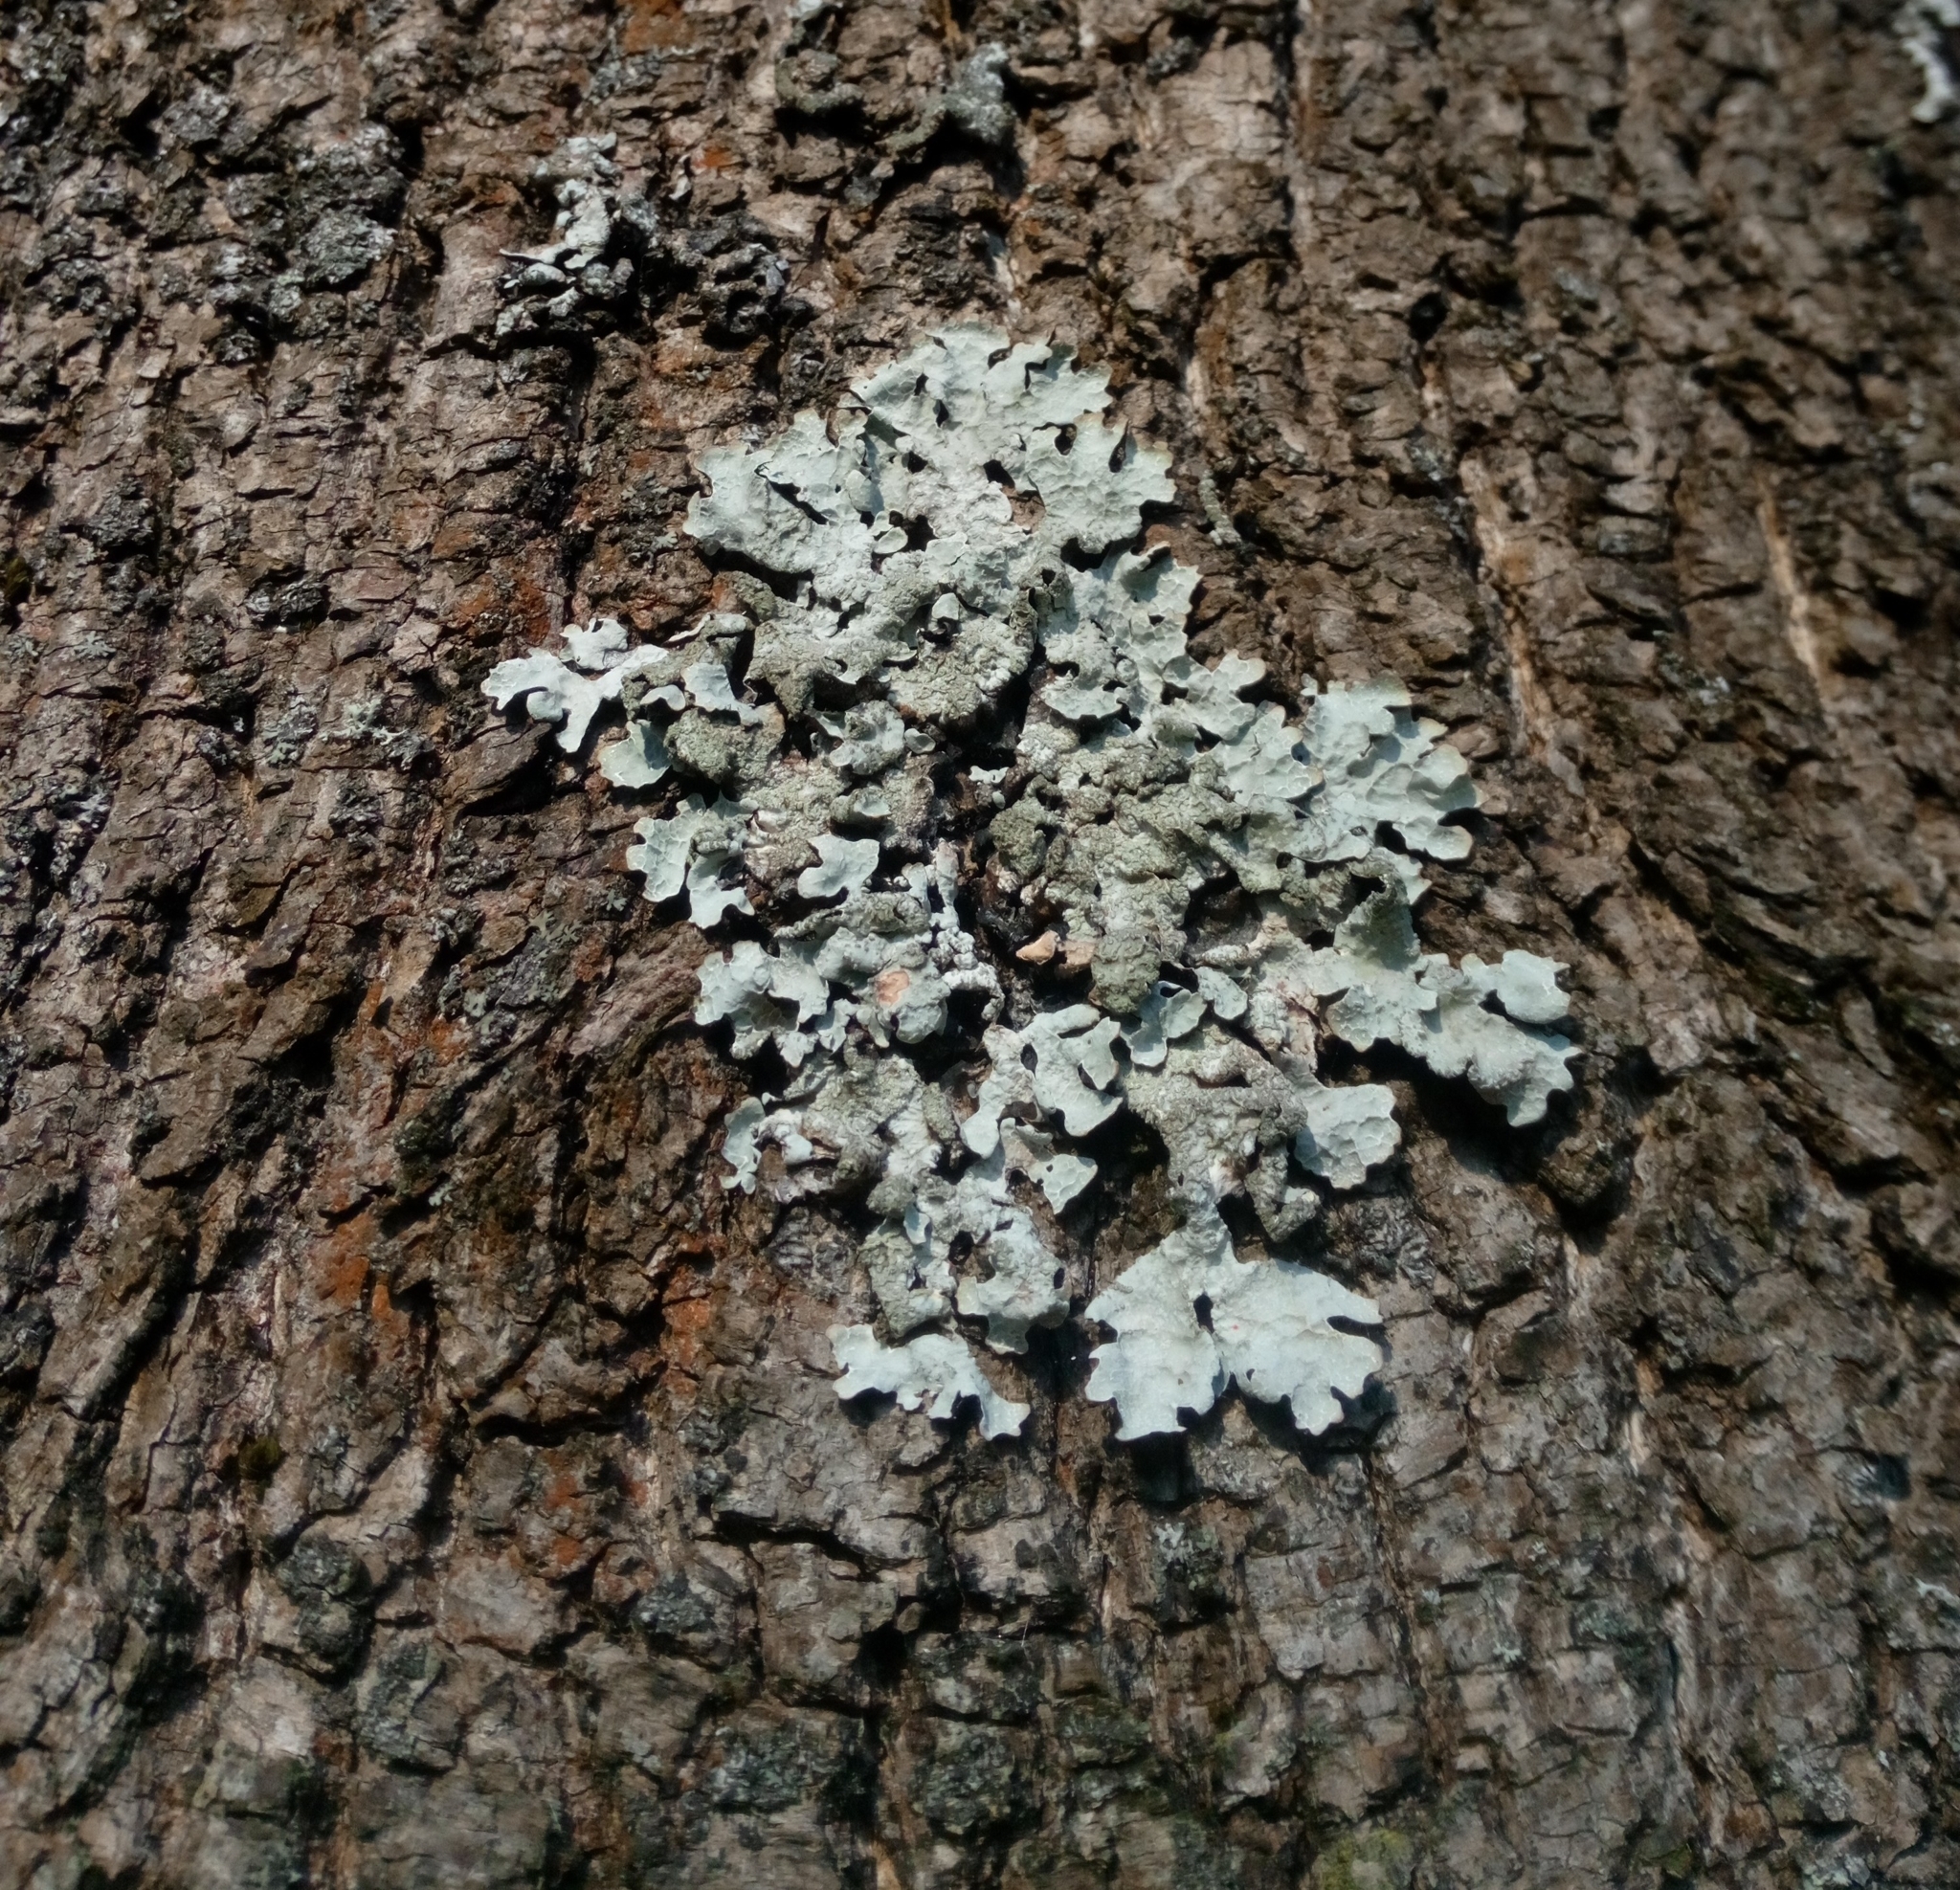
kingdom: Fungi
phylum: Ascomycota
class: Lecanoromycetes
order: Lecanorales
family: Parmeliaceae
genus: Parmelia
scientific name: Parmelia sulcata
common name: Netted shield lichen
